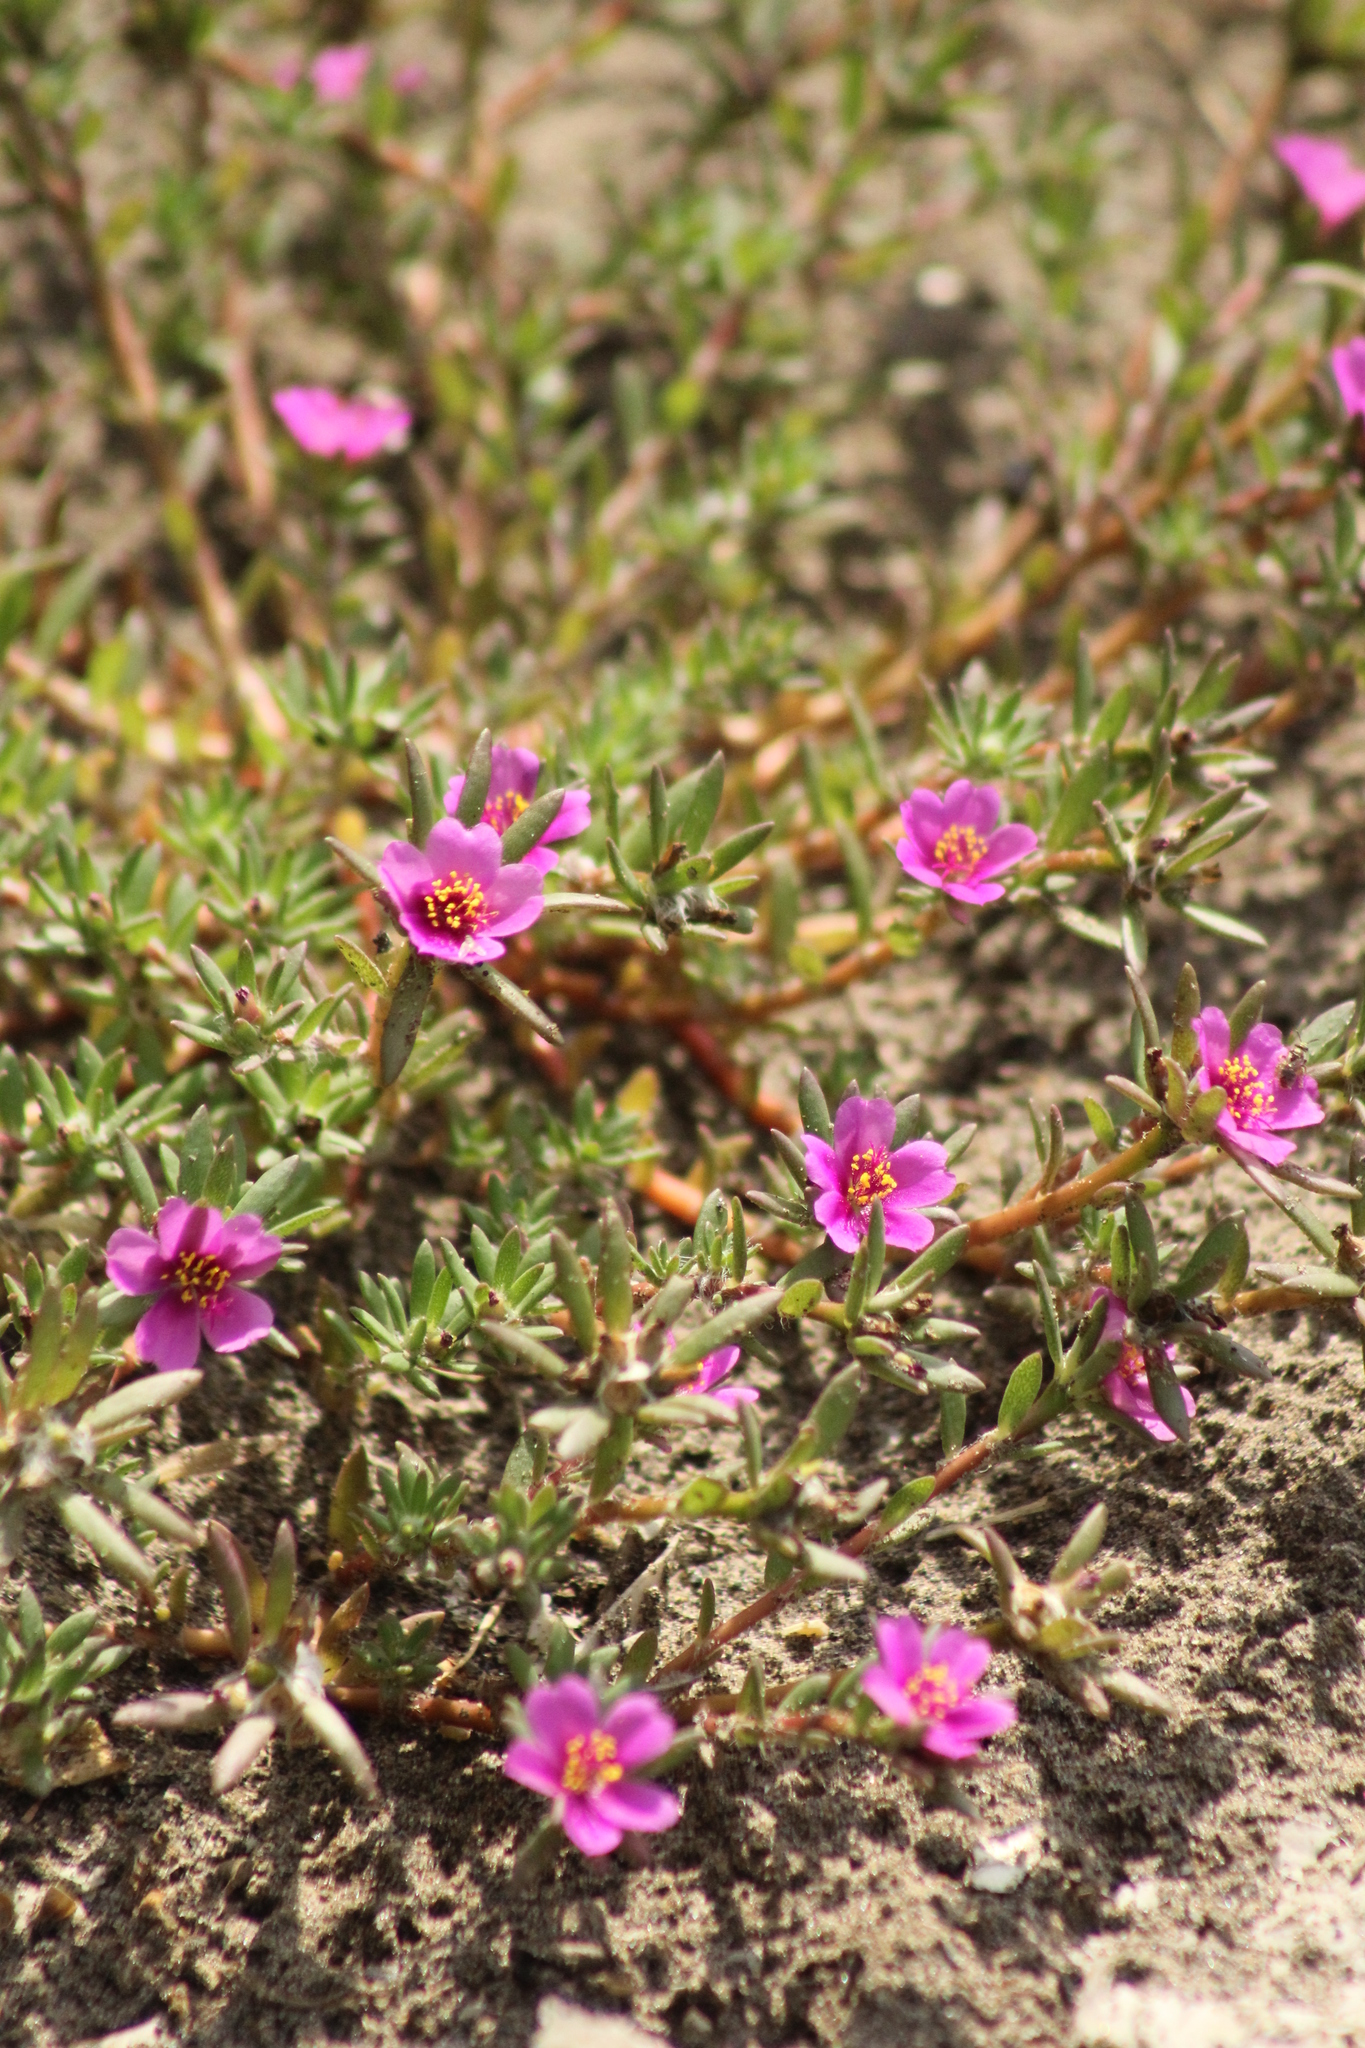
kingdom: Plantae
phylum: Tracheophyta
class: Magnoliopsida
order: Caryophyllales
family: Portulacaceae
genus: Portulaca
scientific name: Portulaca pilosa
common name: Kiss me quick
